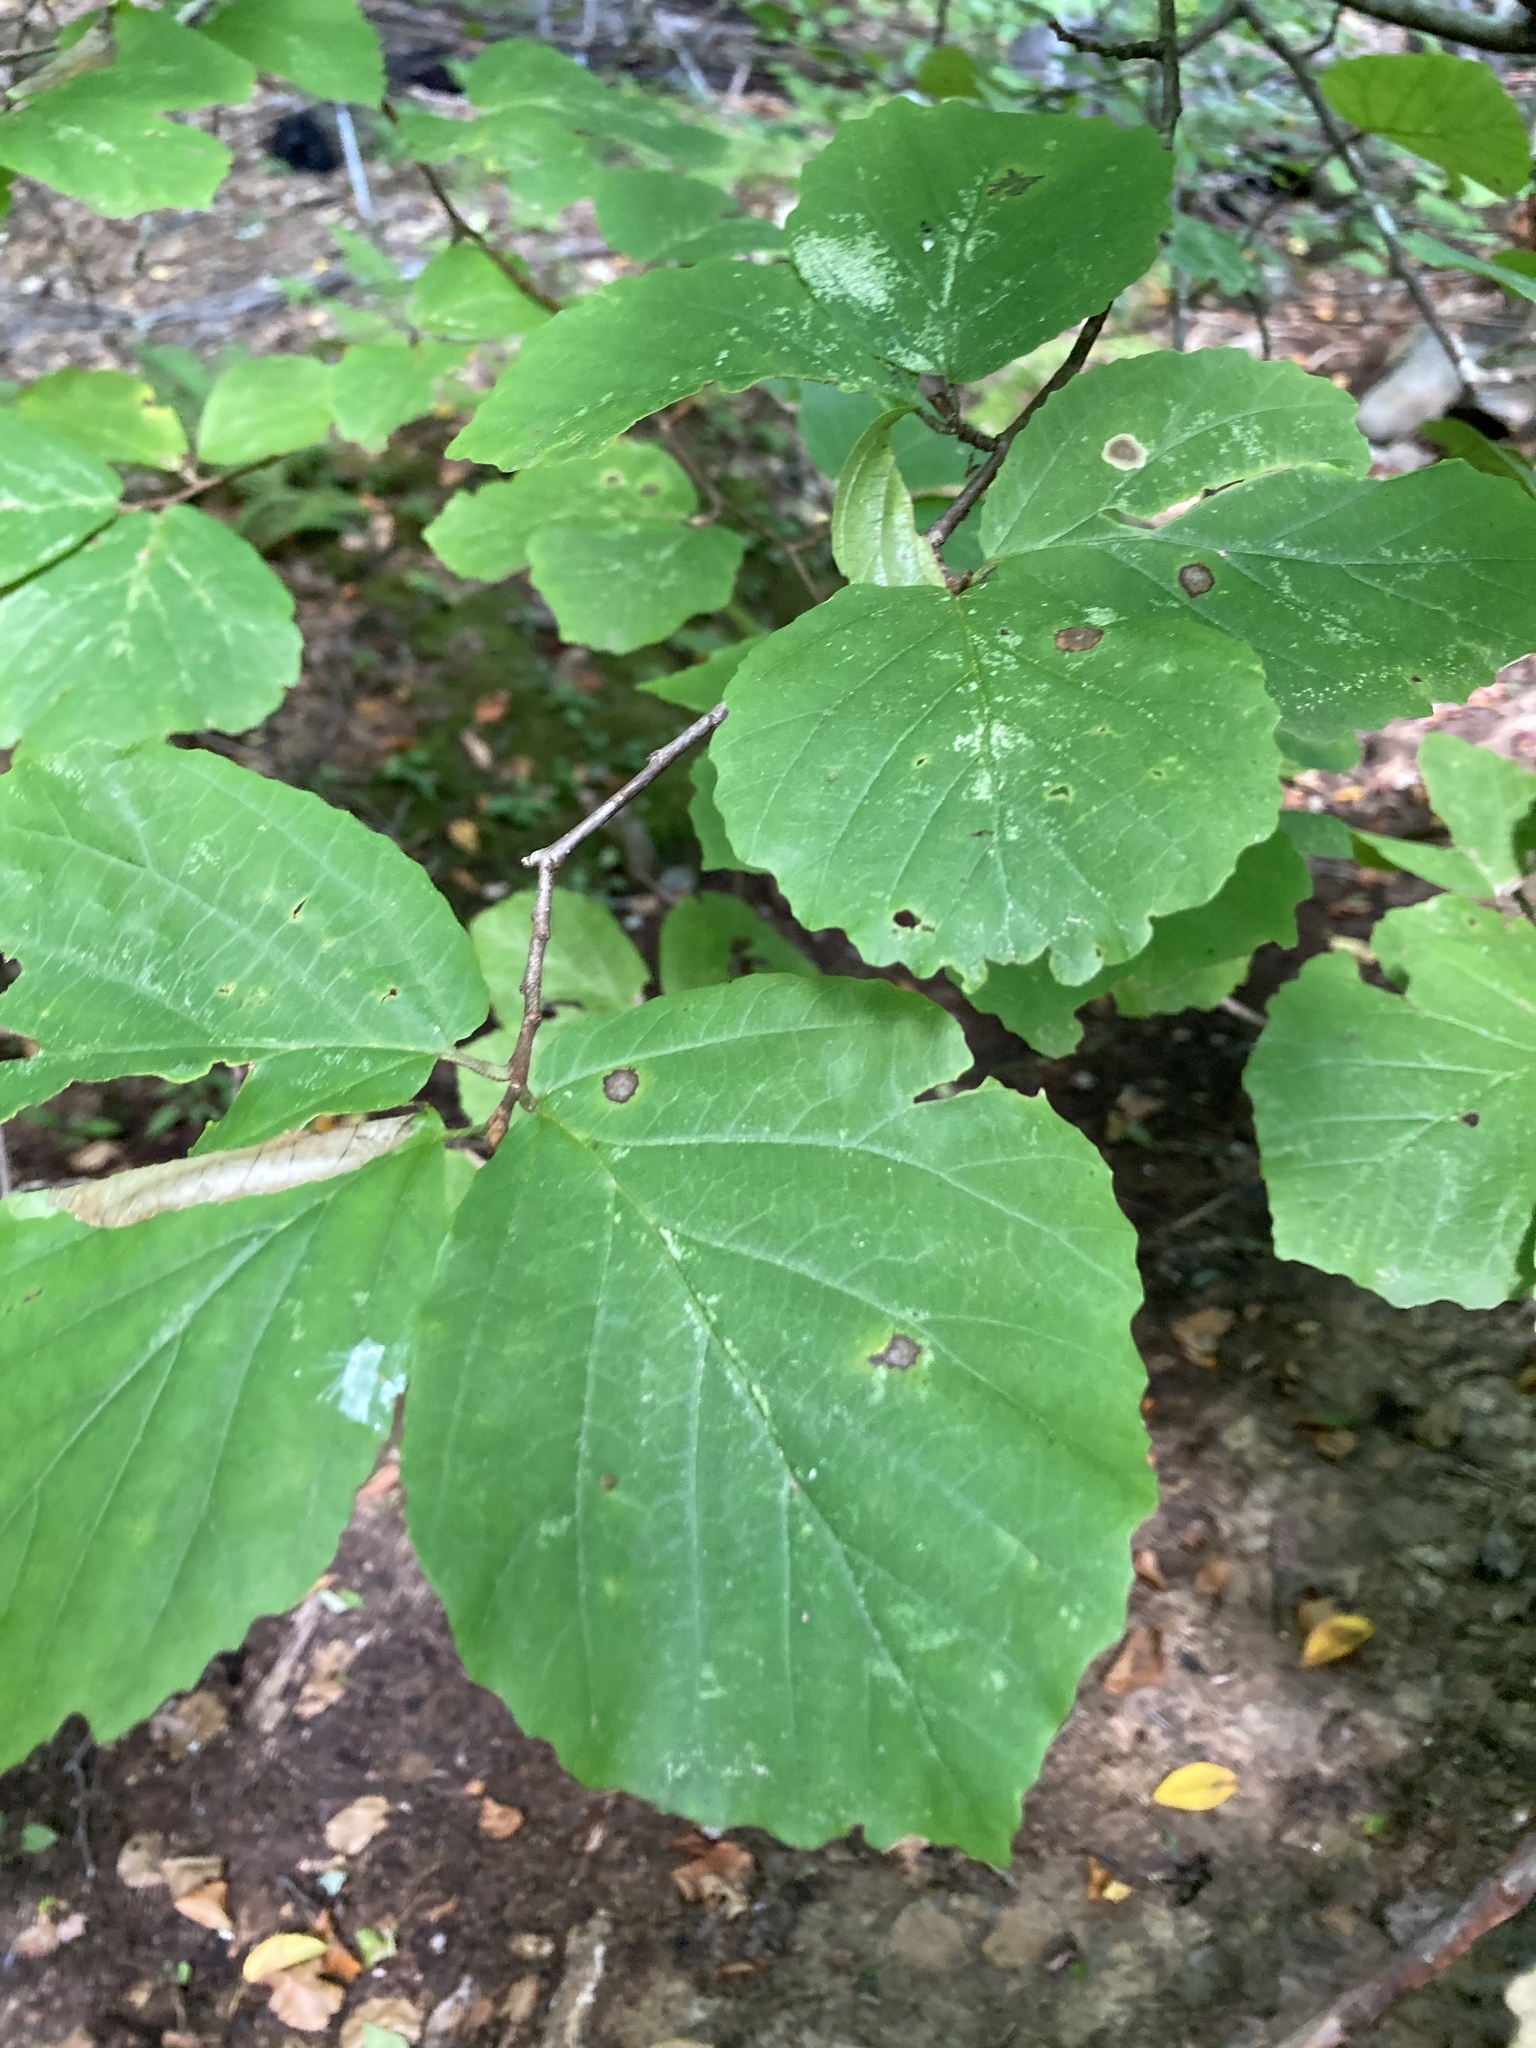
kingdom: Plantae
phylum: Tracheophyta
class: Magnoliopsida
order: Saxifragales
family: Hamamelidaceae
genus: Hamamelis
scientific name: Hamamelis virginiana
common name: Witch-hazel
